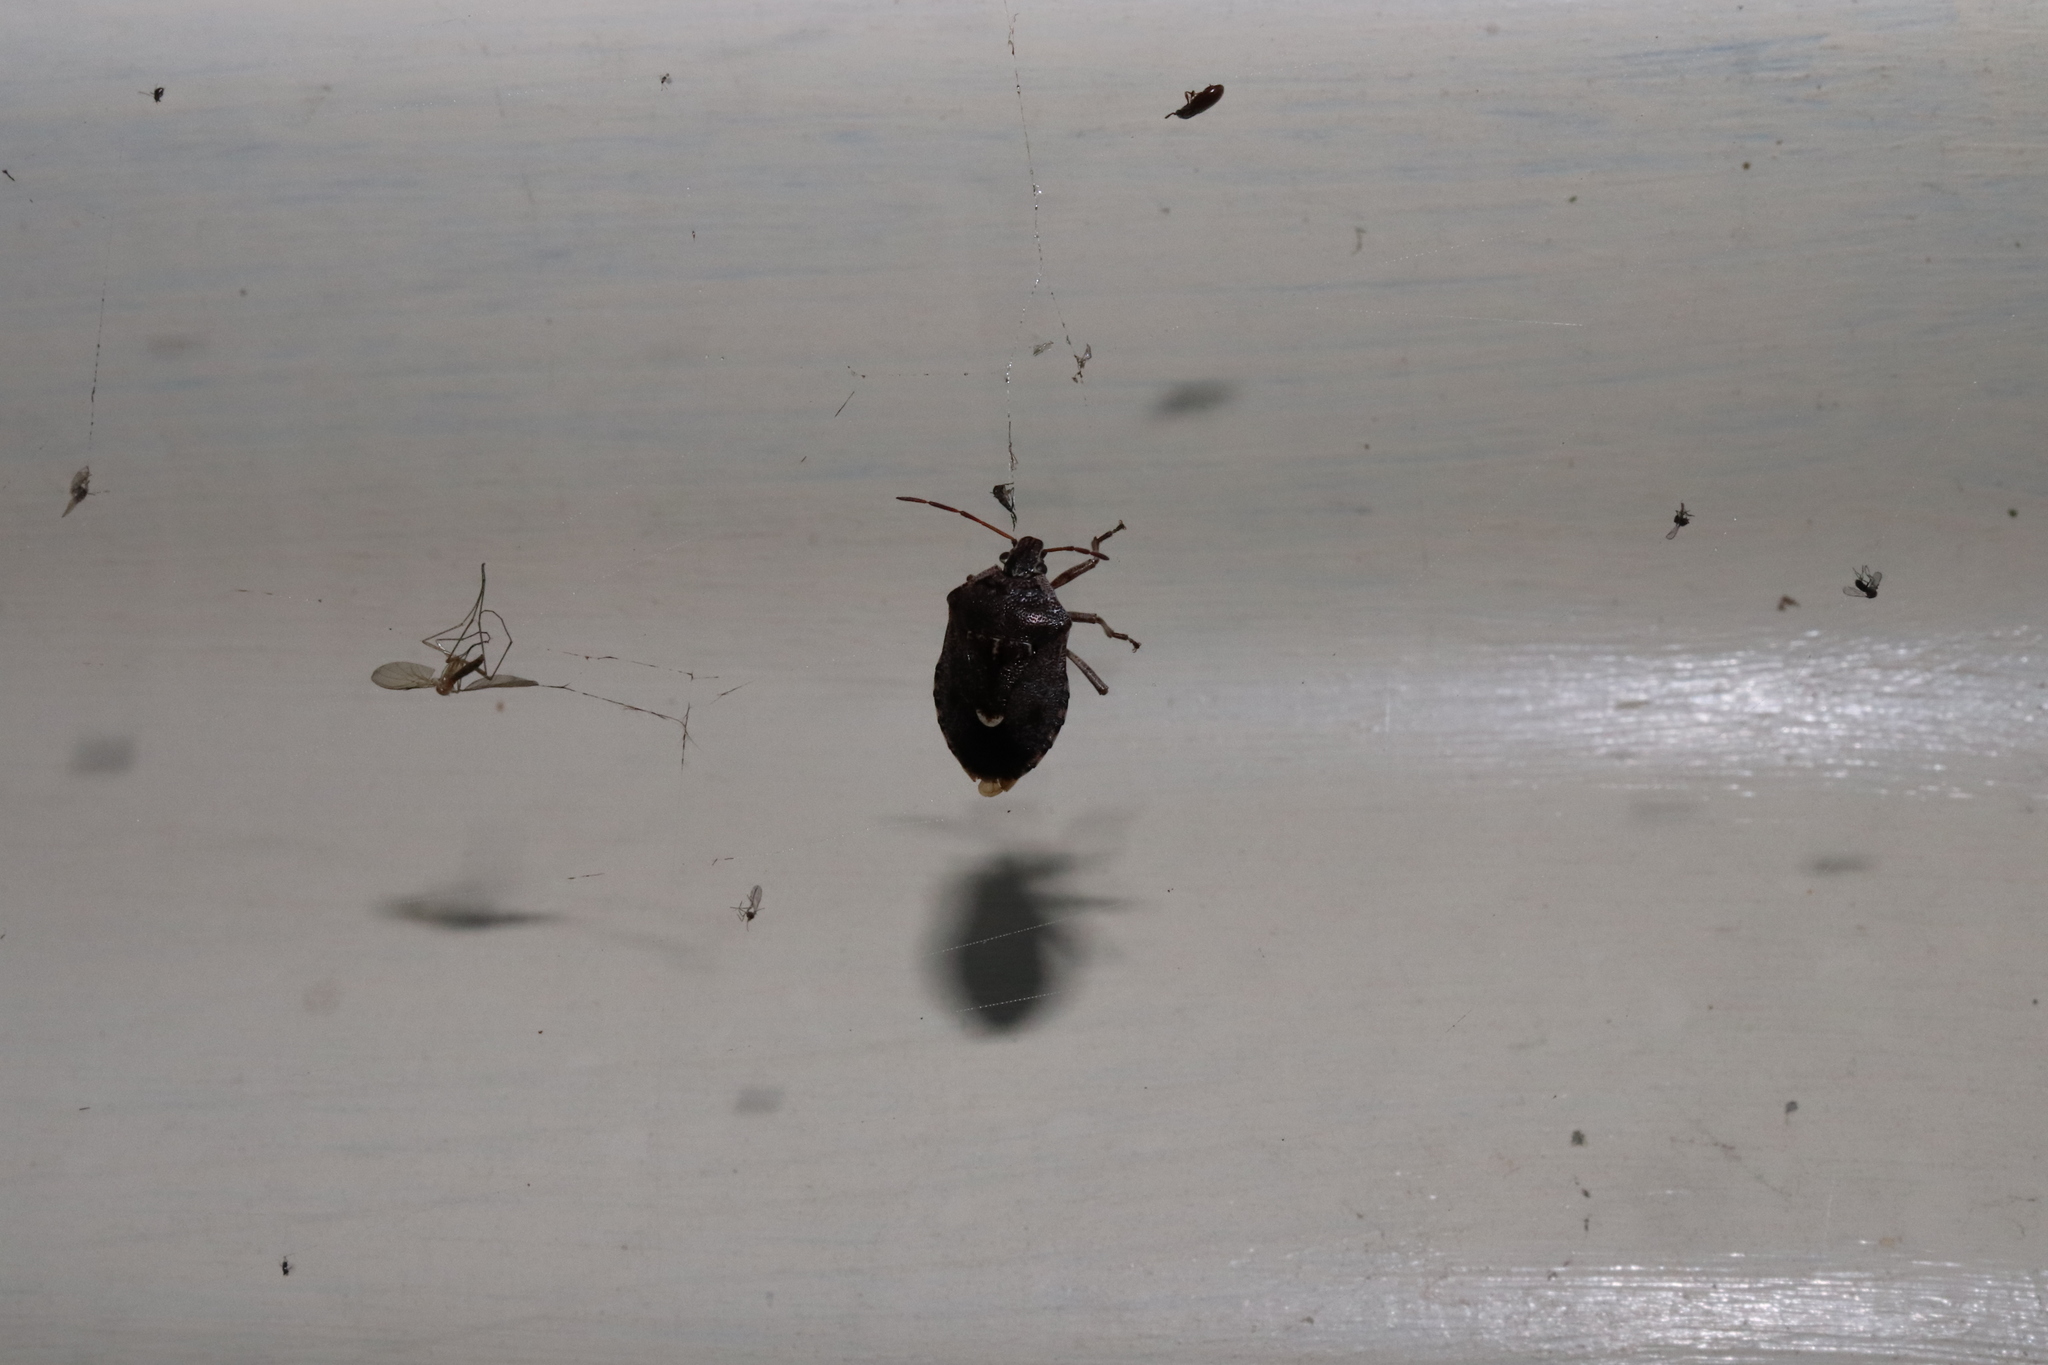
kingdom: Animalia
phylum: Arthropoda
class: Insecta
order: Hemiptera
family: Pentatomidae
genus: Cermatulus
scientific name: Cermatulus nasalis
